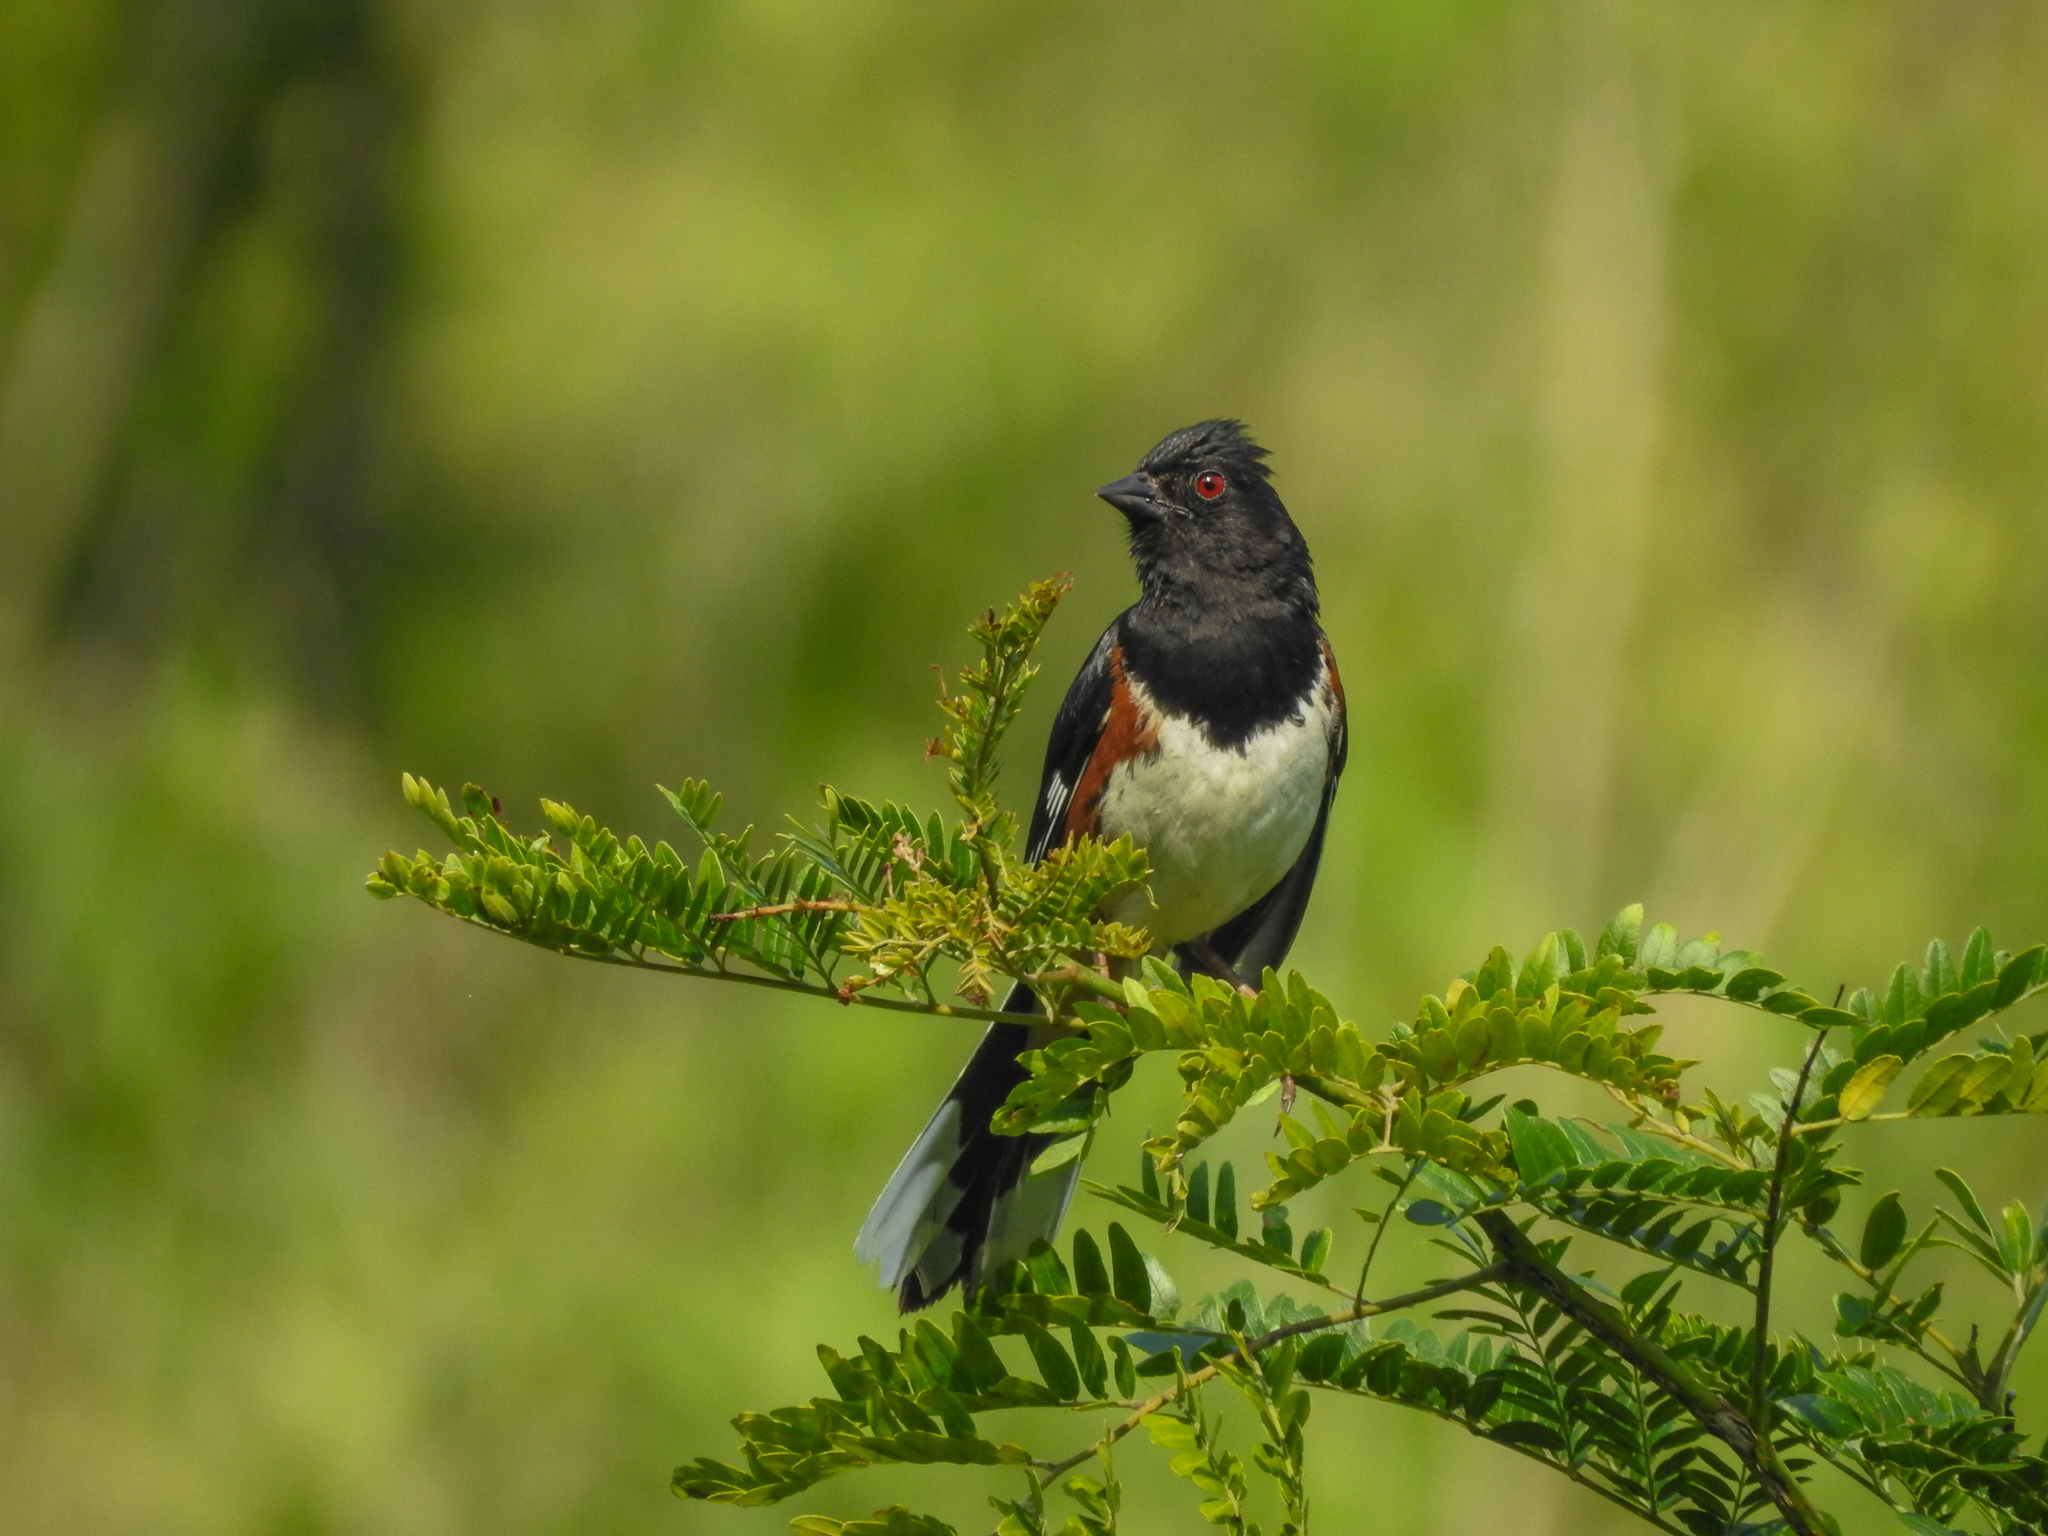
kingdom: Animalia
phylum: Chordata
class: Aves
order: Passeriformes
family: Passerellidae
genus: Pipilo
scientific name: Pipilo erythrophthalmus
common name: Eastern towhee
